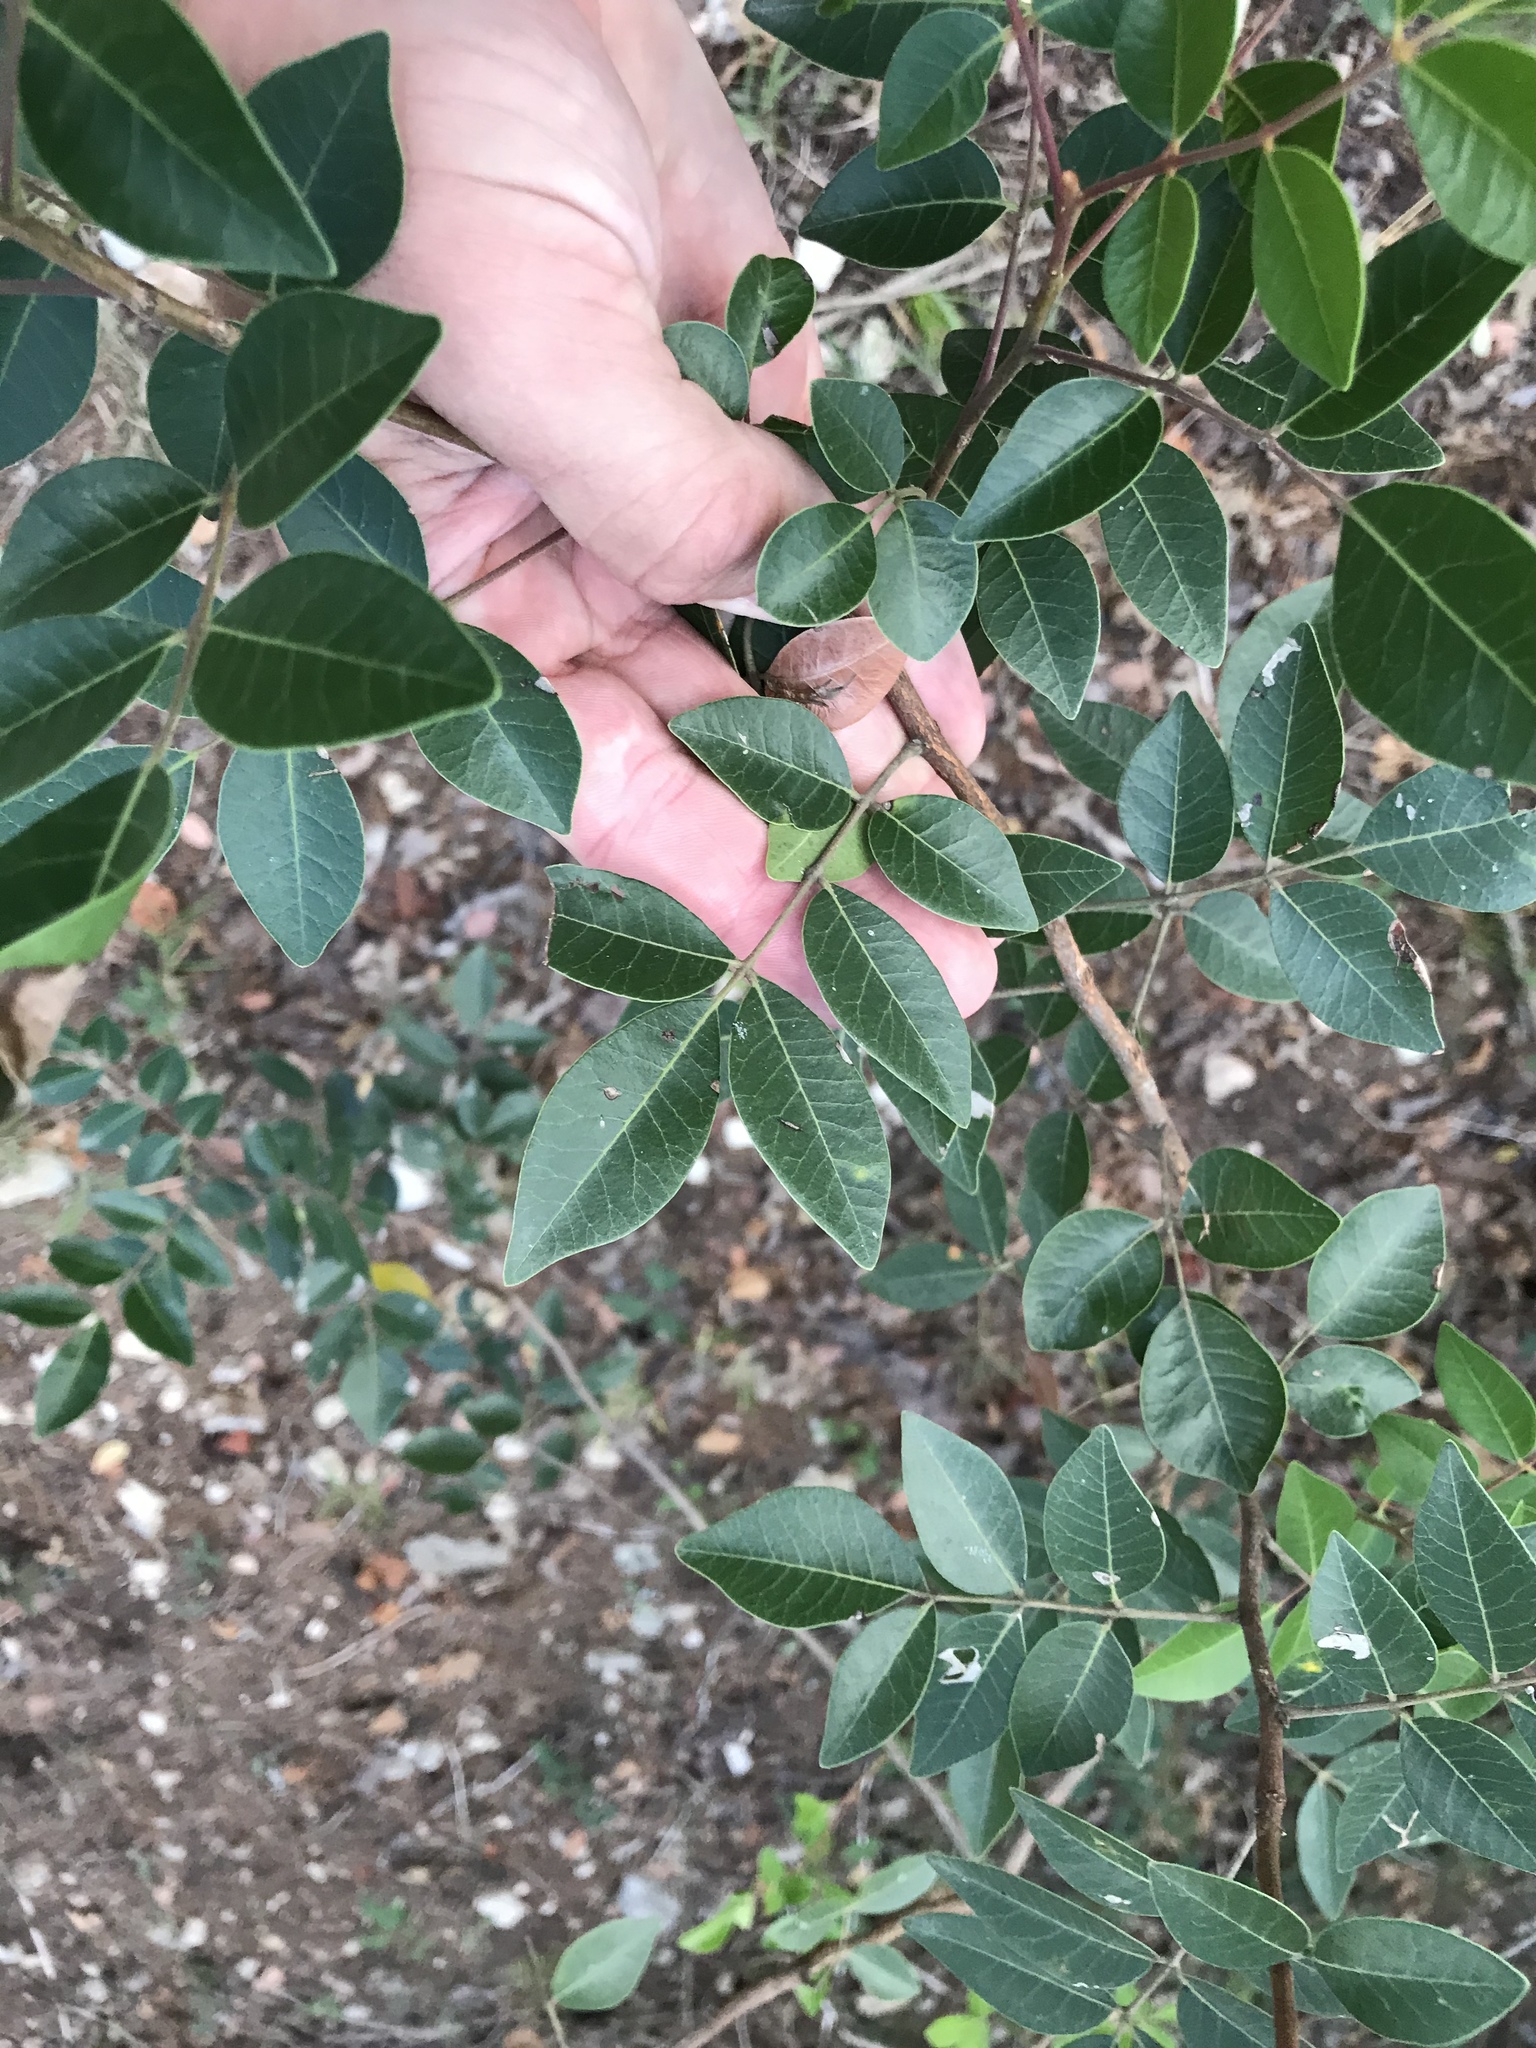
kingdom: Plantae
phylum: Tracheophyta
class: Magnoliopsida
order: Sapindales
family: Anacardiaceae
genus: Rhus
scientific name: Rhus virens
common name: Evergreen sumac
